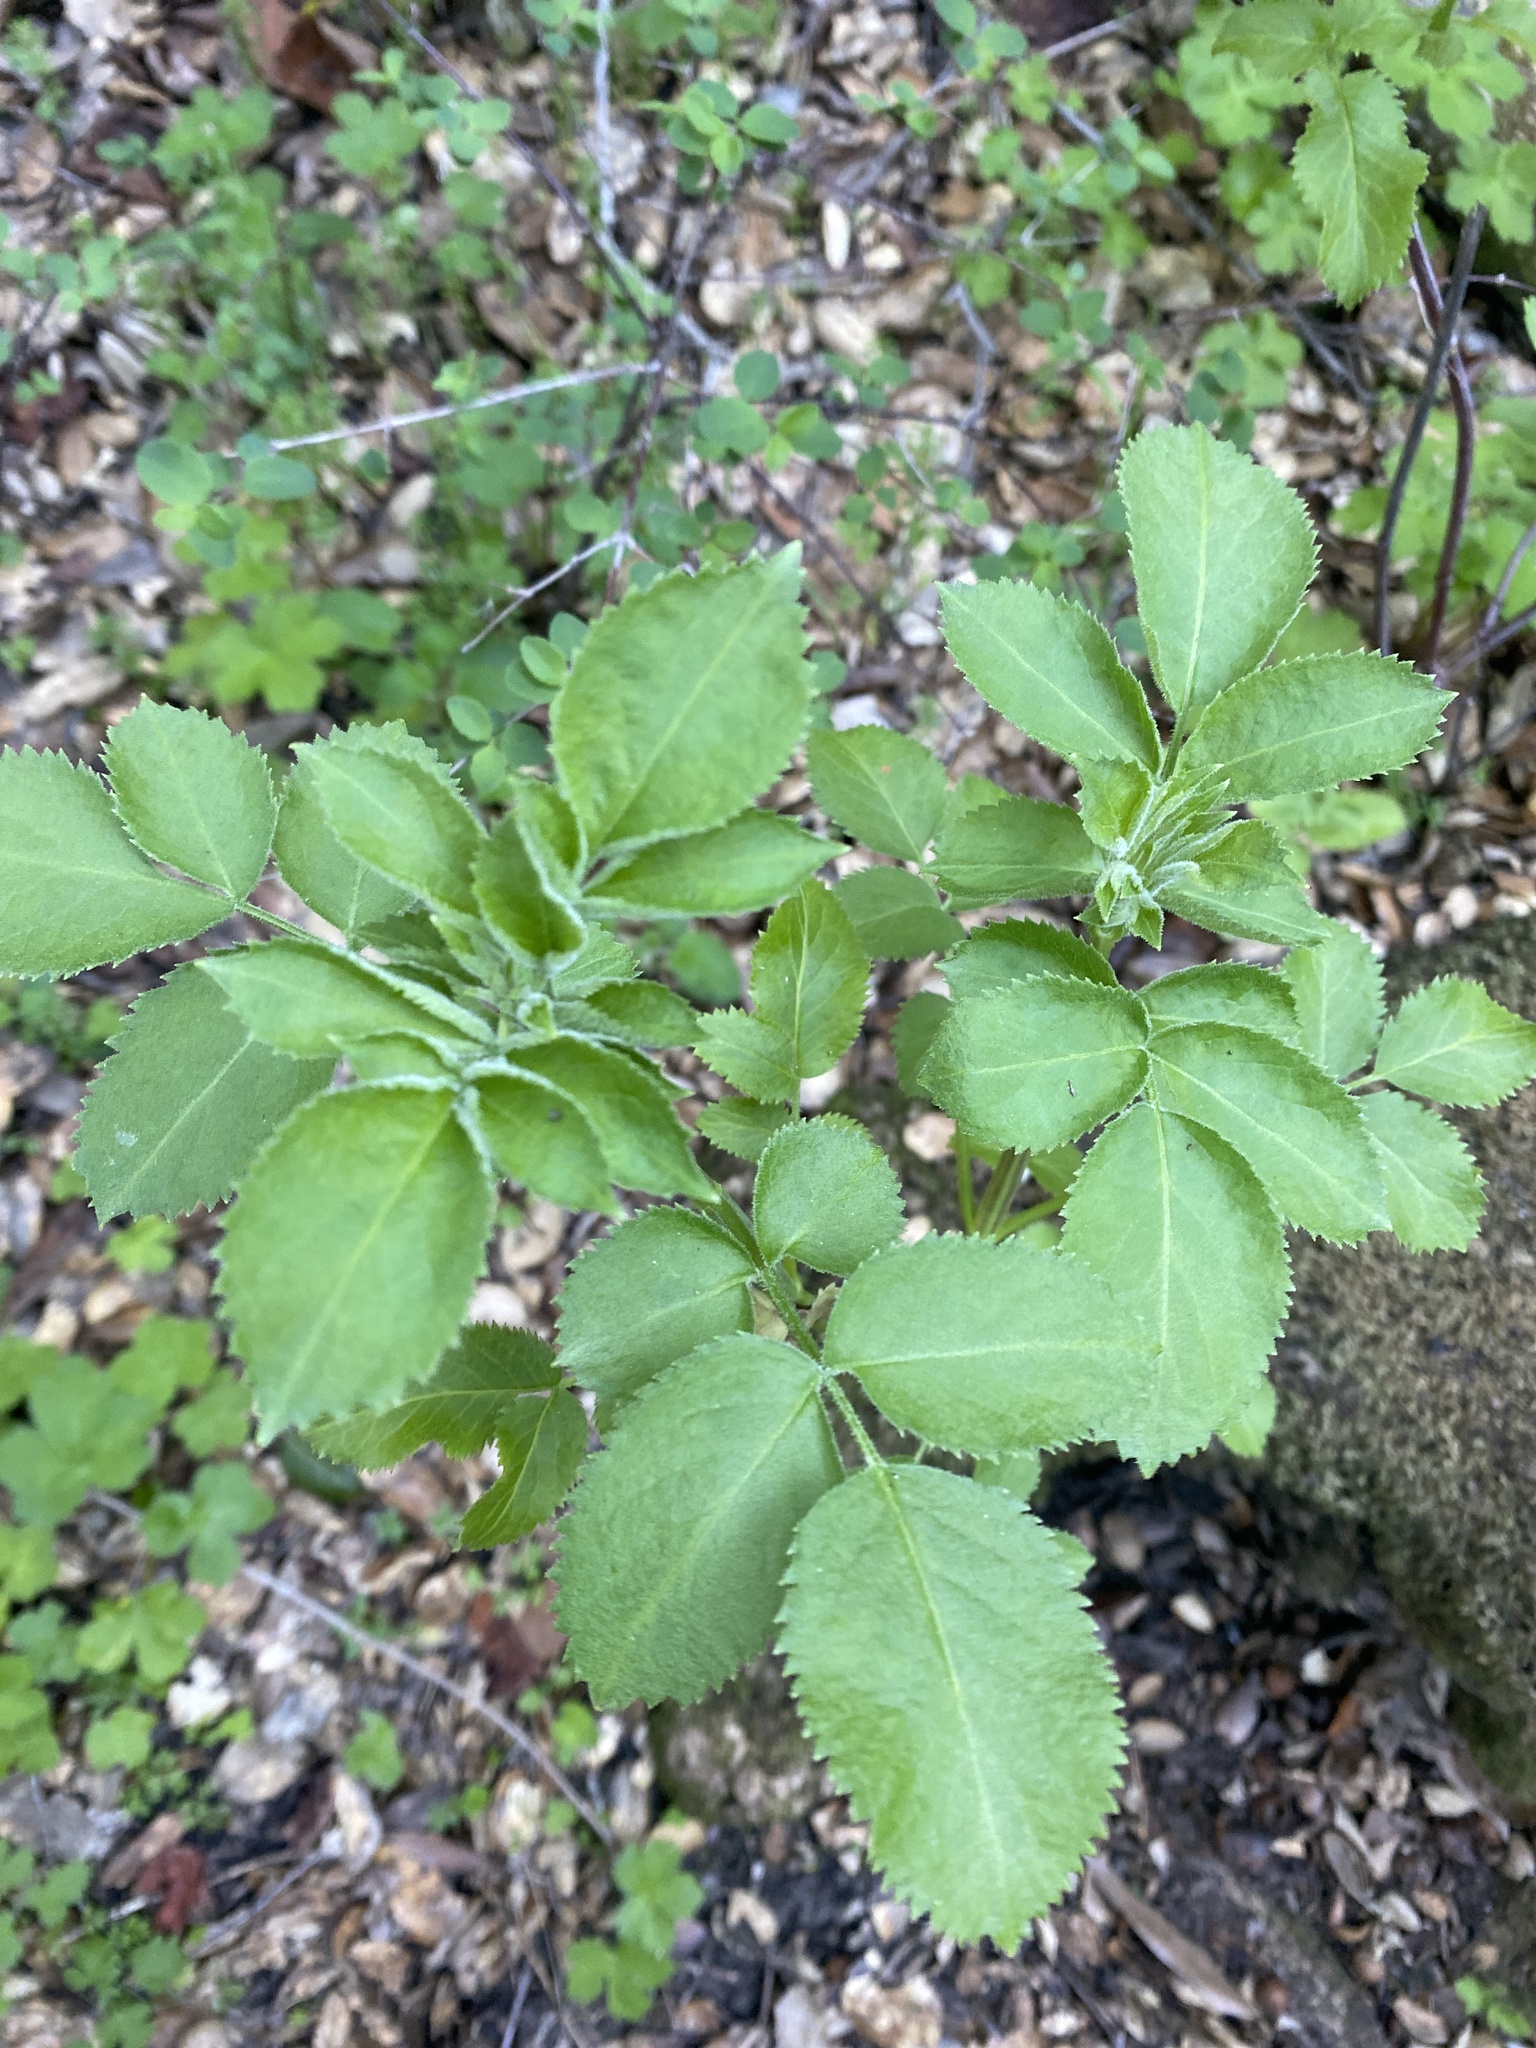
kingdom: Plantae
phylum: Tracheophyta
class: Magnoliopsida
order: Dipsacales
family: Viburnaceae
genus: Sambucus
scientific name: Sambucus cerulea
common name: Blue elder
